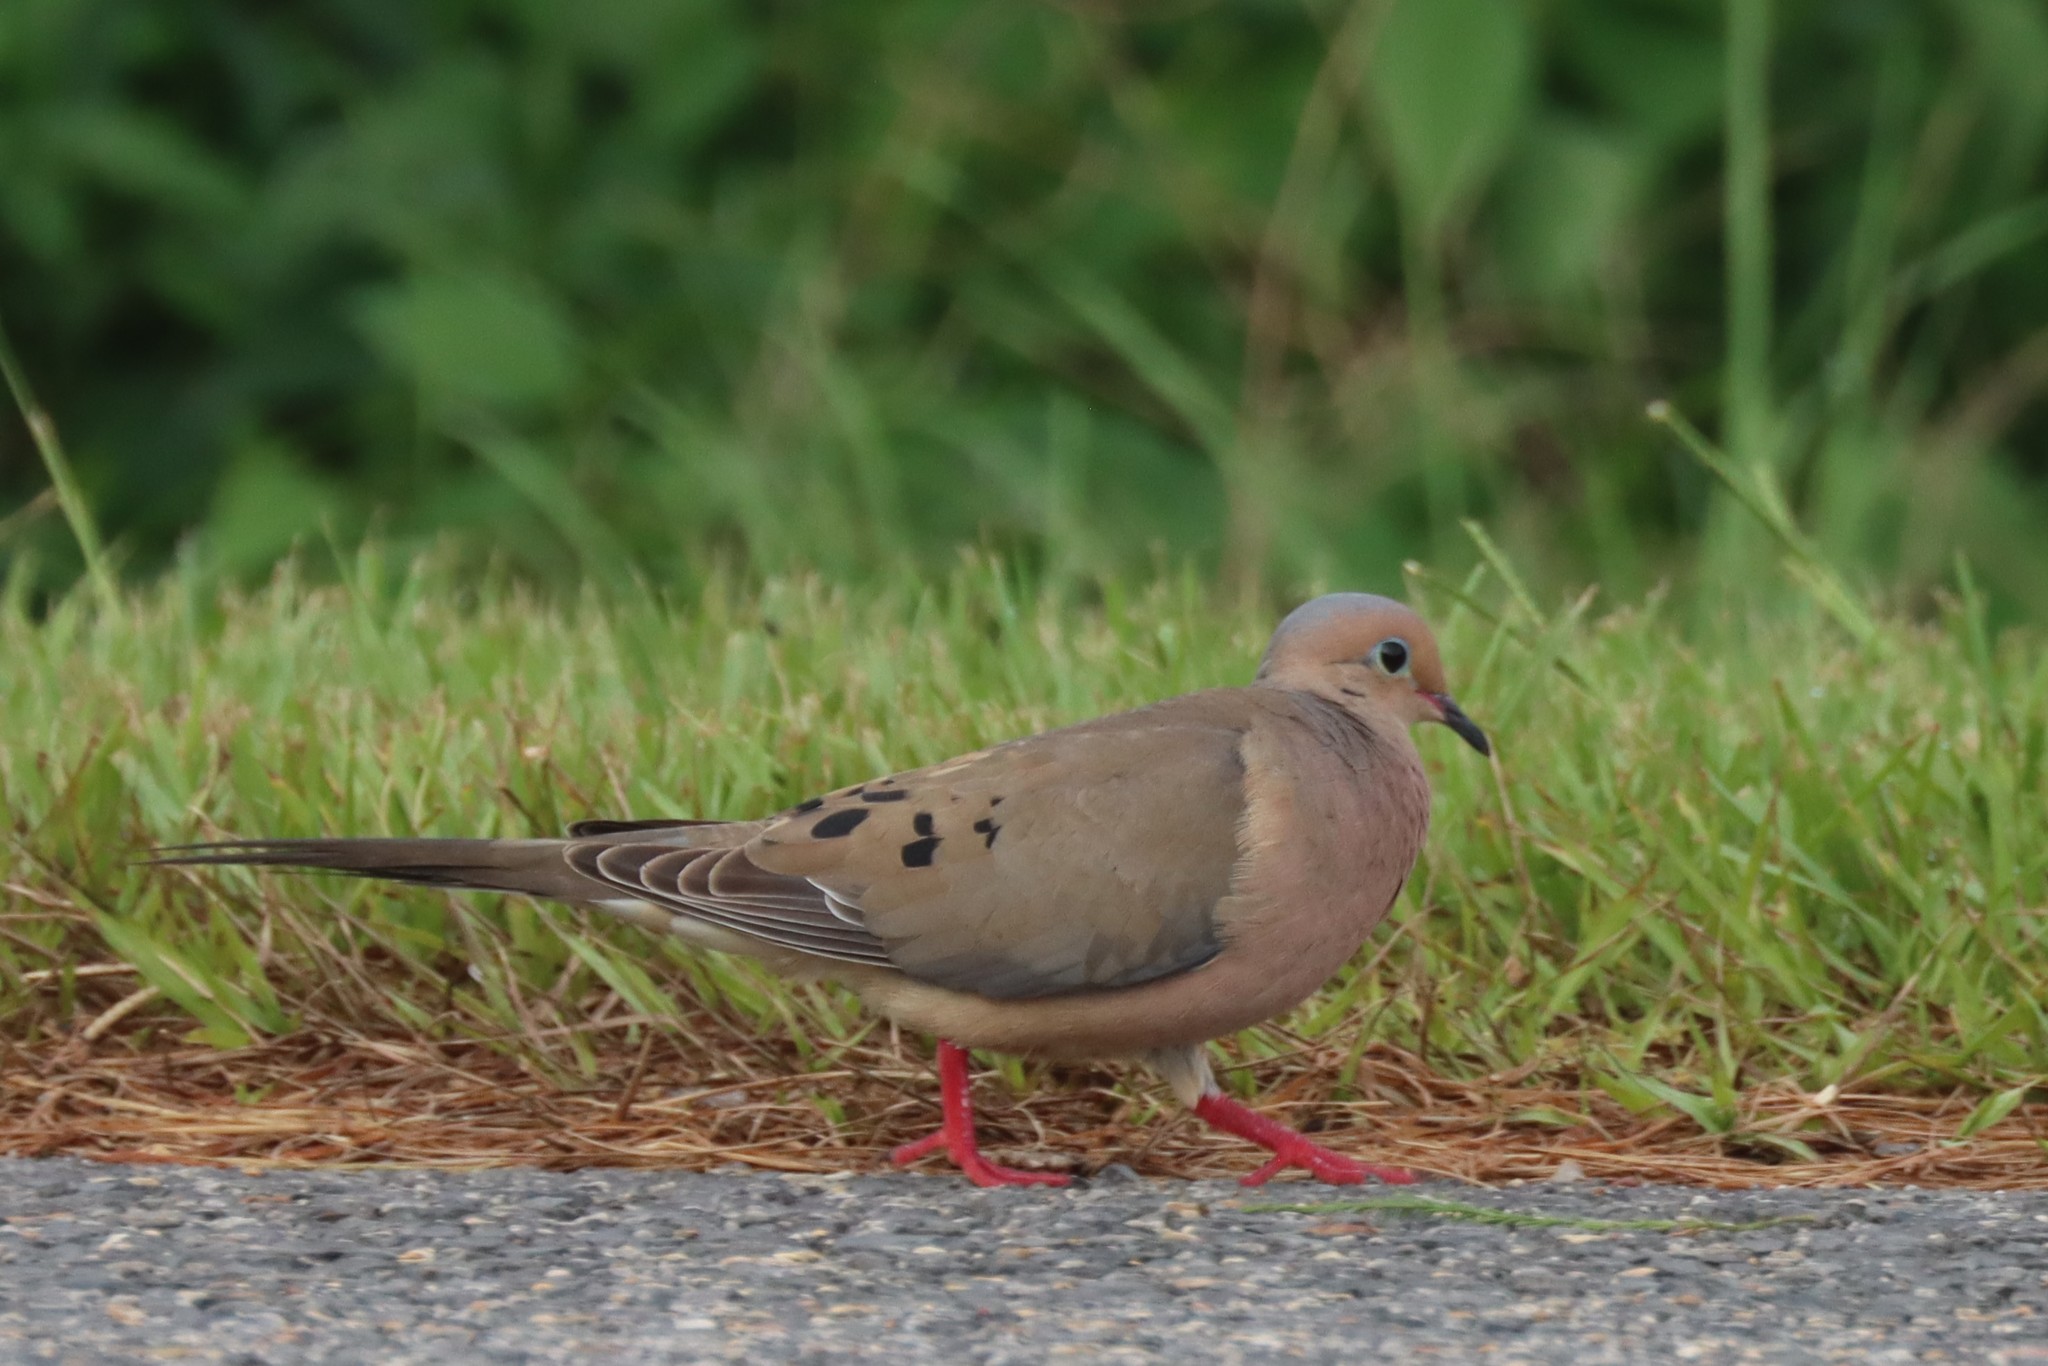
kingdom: Animalia
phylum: Chordata
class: Aves
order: Columbiformes
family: Columbidae
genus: Zenaida
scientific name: Zenaida macroura
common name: Mourning dove
